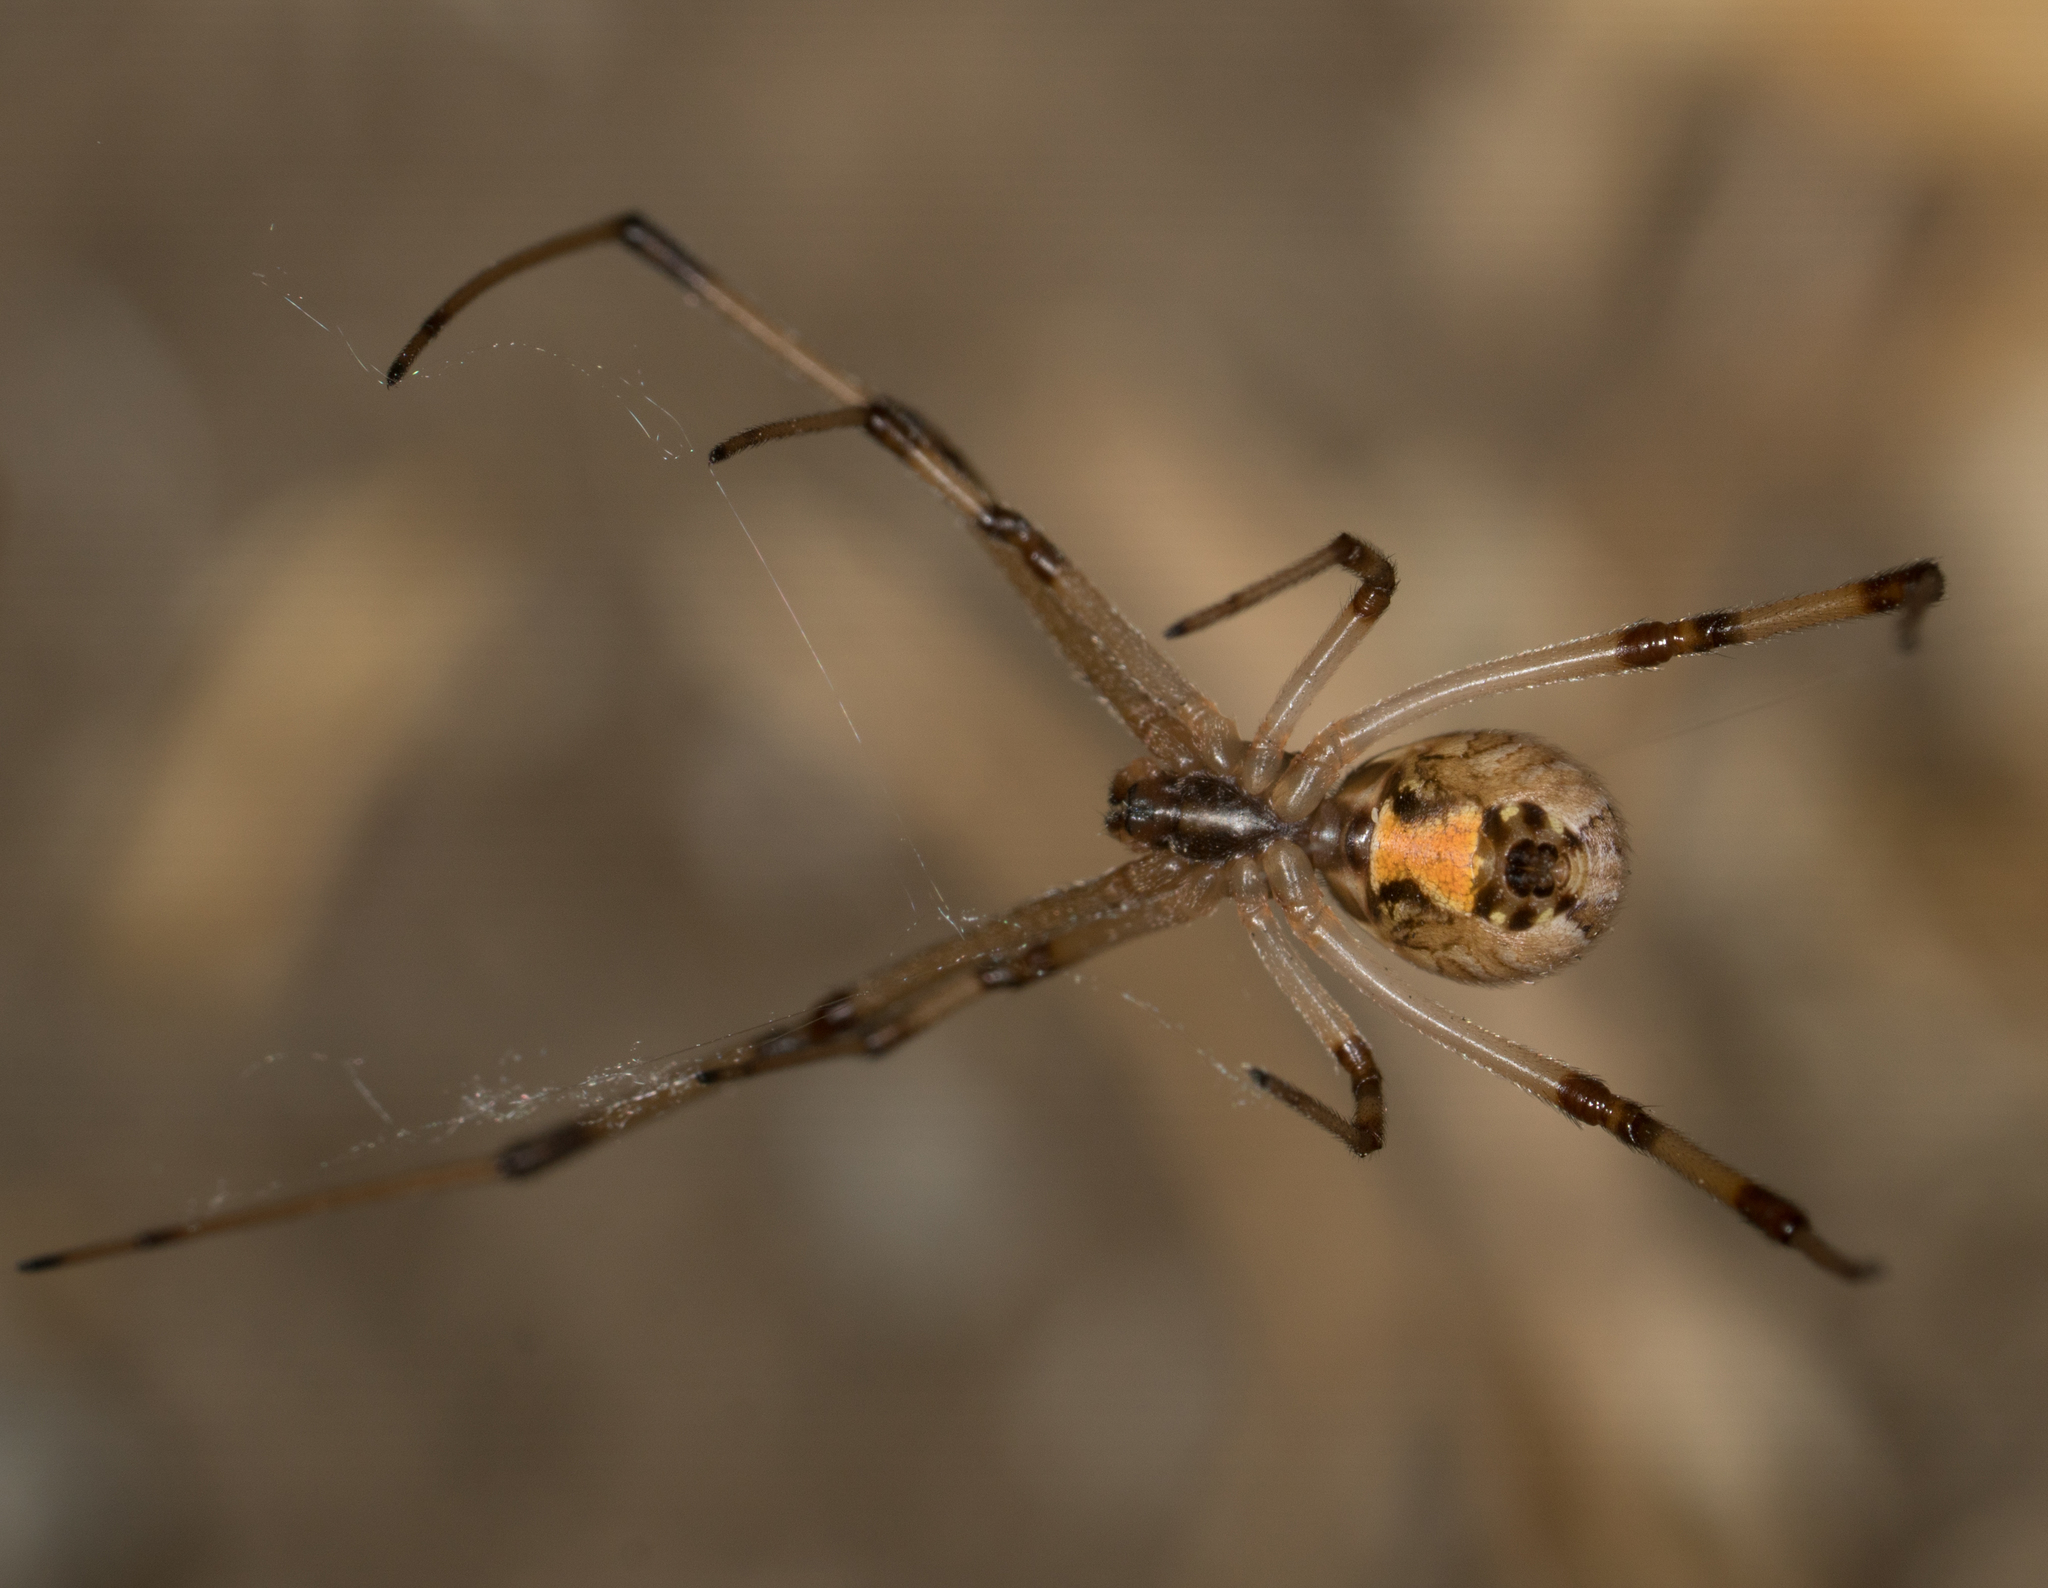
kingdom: Animalia
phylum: Arthropoda
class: Arachnida
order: Araneae
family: Theridiidae
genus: Latrodectus
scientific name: Latrodectus geometricus
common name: Brown widow spider
